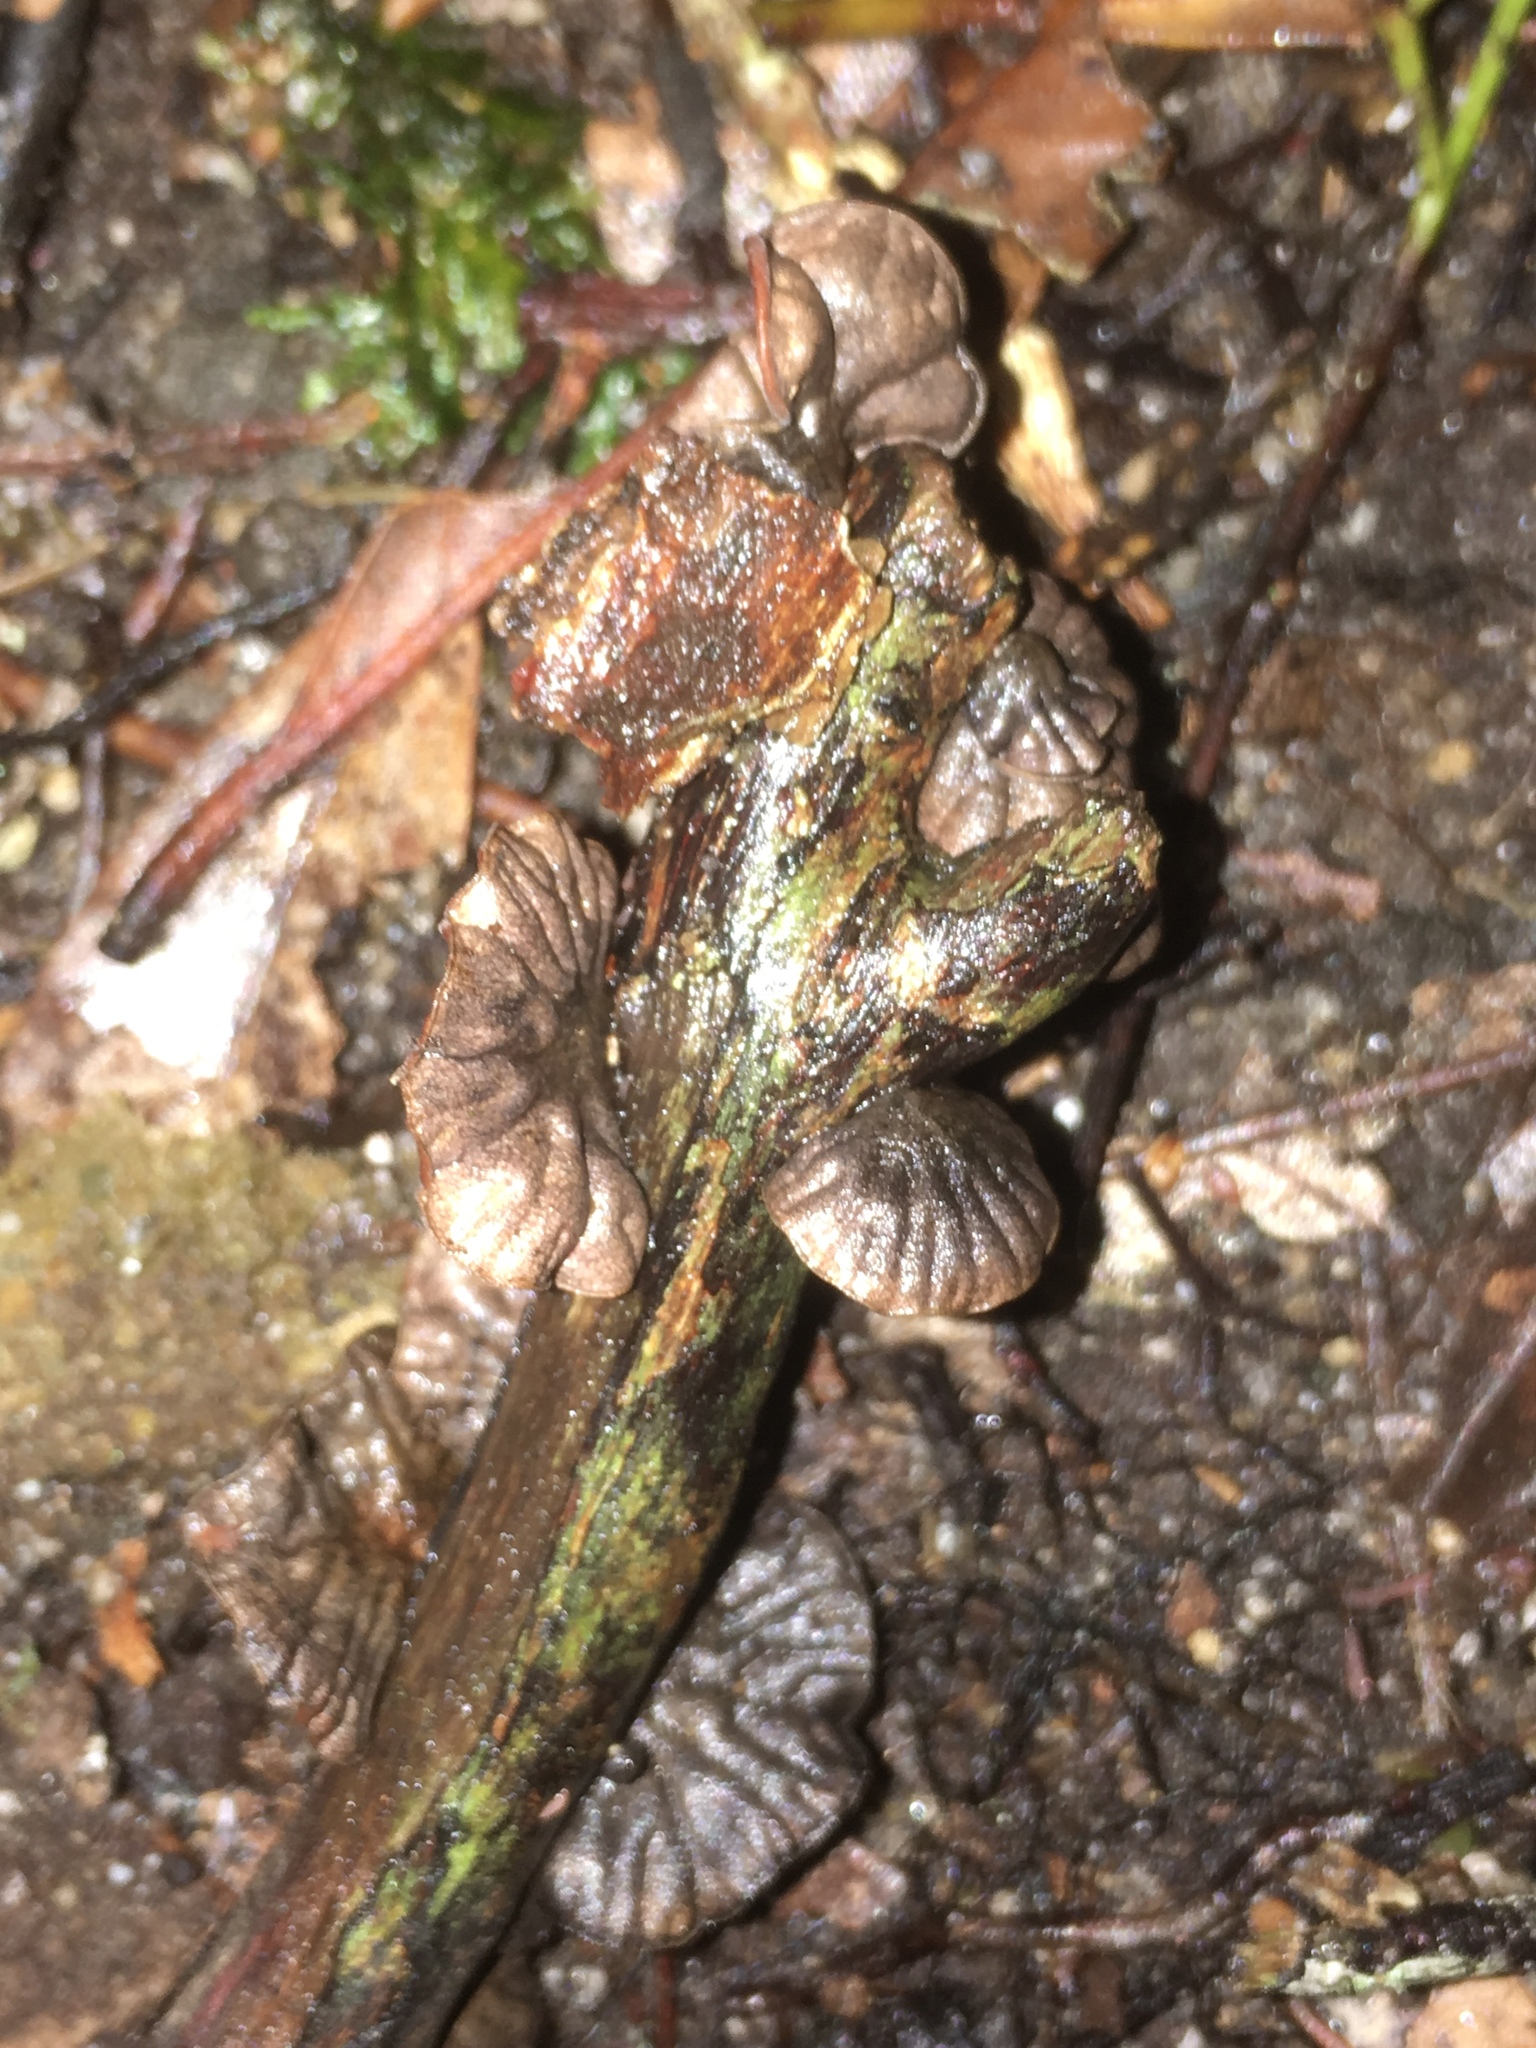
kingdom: Fungi
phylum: Basidiomycota
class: Agaricomycetes
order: Agaricales
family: Omphalotaceae
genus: Anthracophyllum
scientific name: Anthracophyllum archeri
